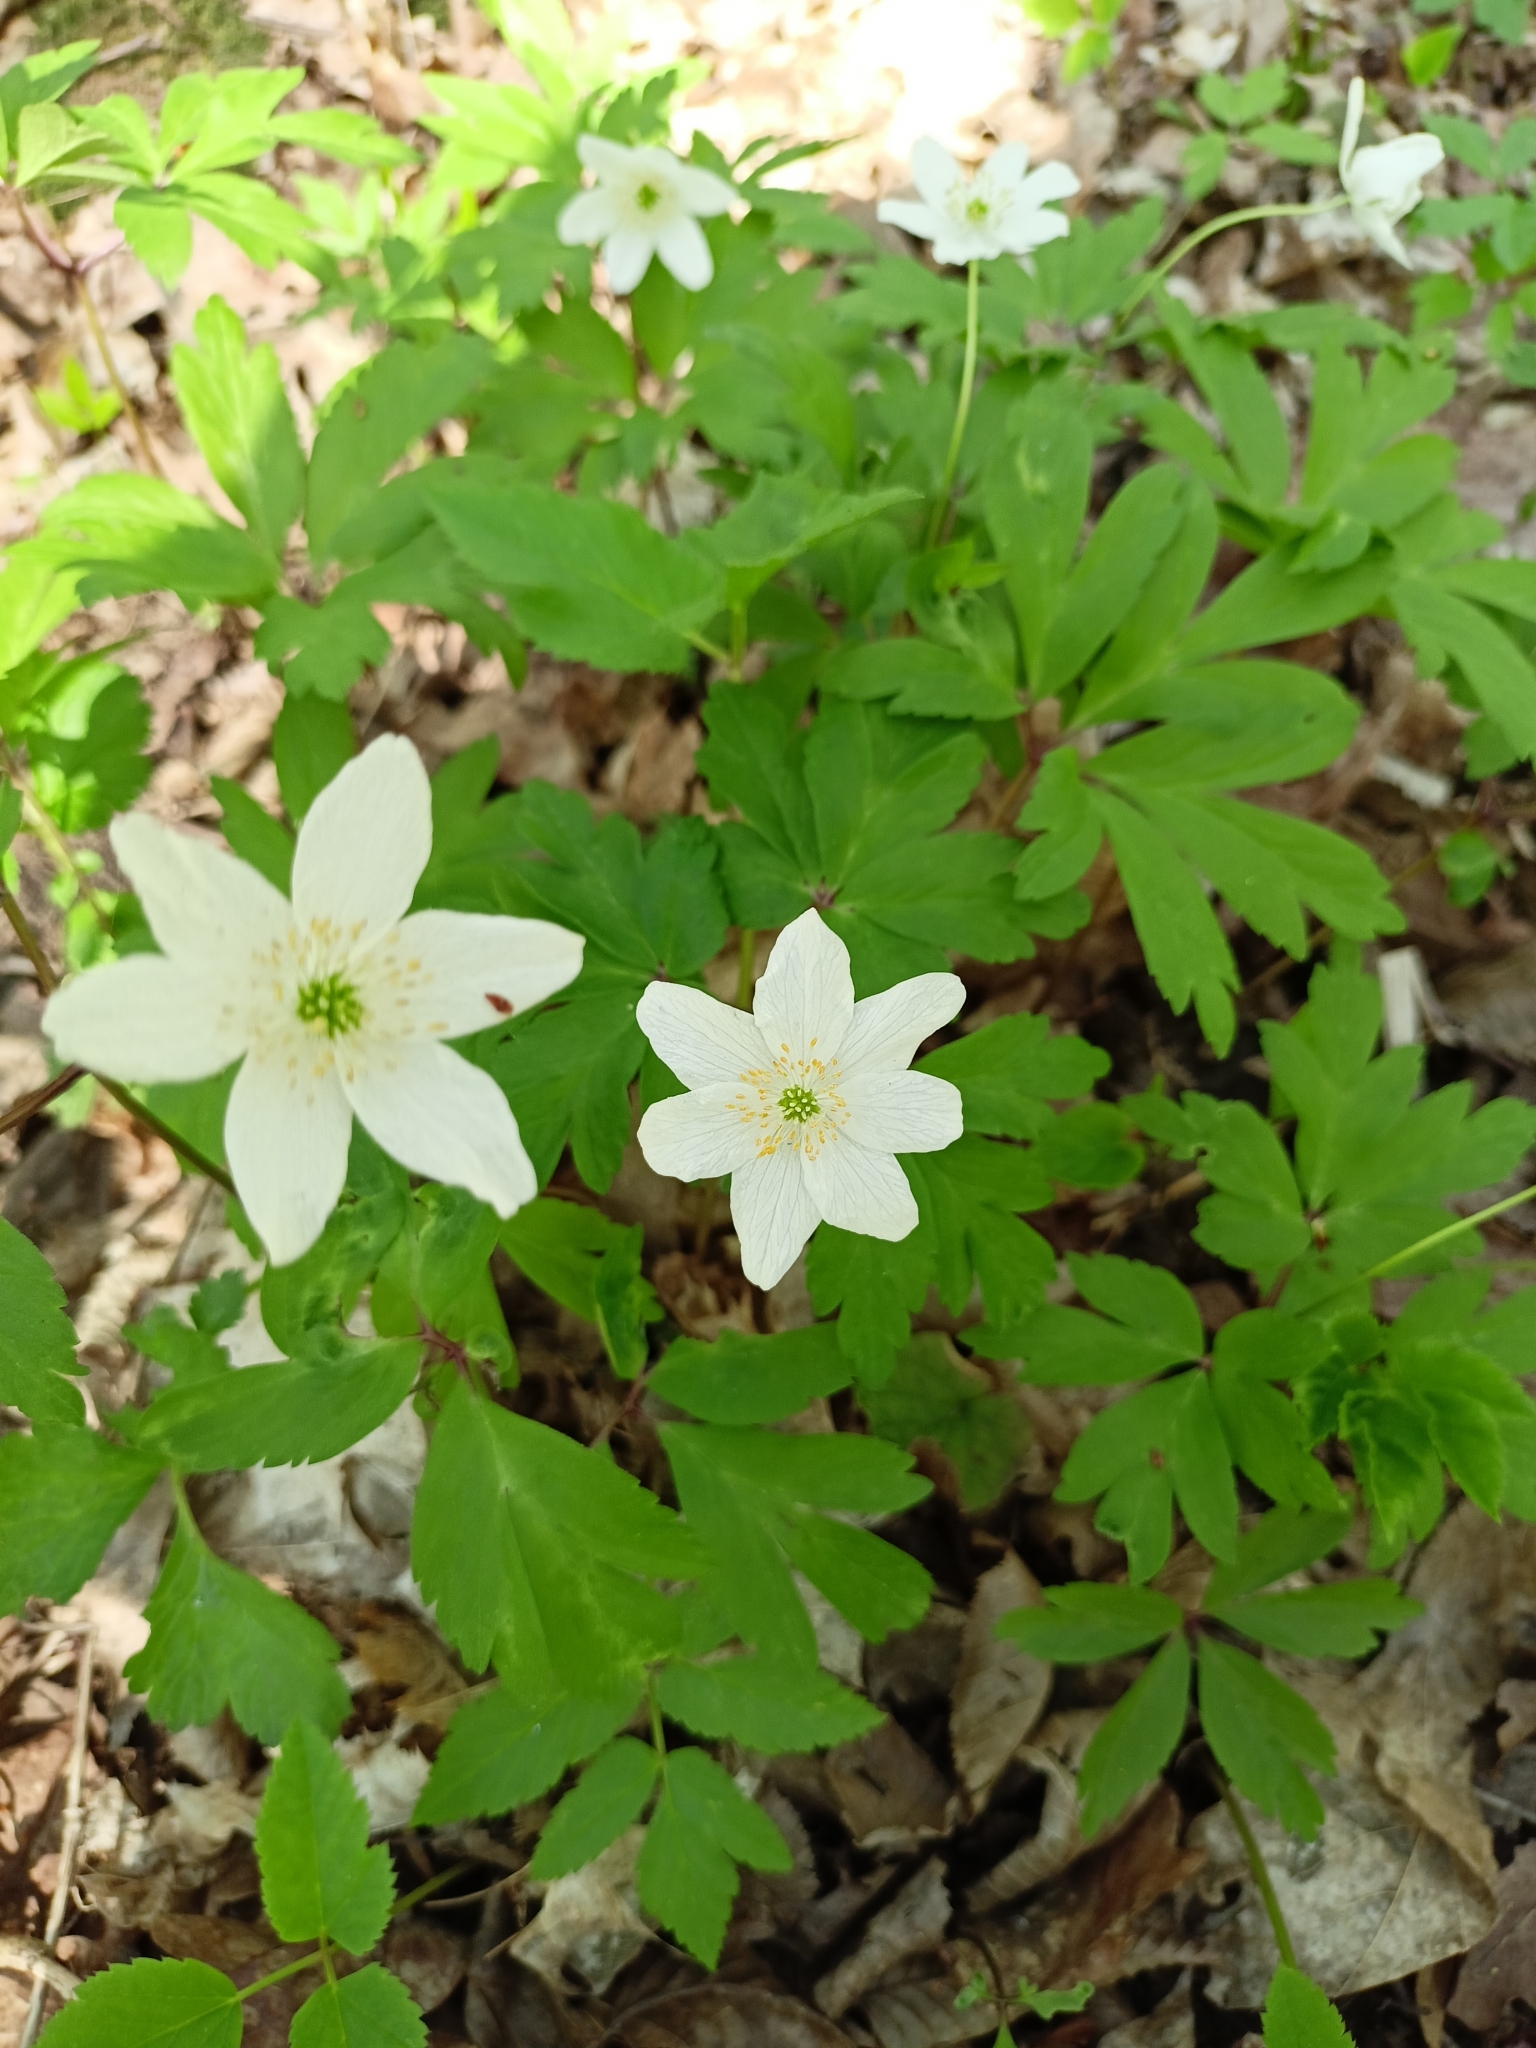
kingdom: Plantae
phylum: Tracheophyta
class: Magnoliopsida
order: Ranunculales
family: Ranunculaceae
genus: Anemone
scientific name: Anemone nemorosa
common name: Wood anemone
